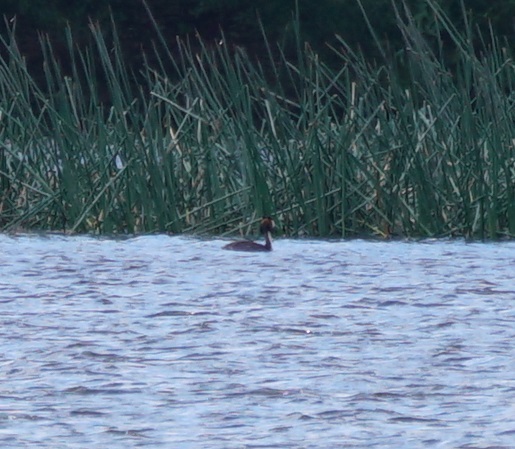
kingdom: Animalia
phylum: Chordata
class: Aves
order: Podicipediformes
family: Podicipedidae
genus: Podiceps
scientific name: Podiceps cristatus
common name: Great crested grebe
